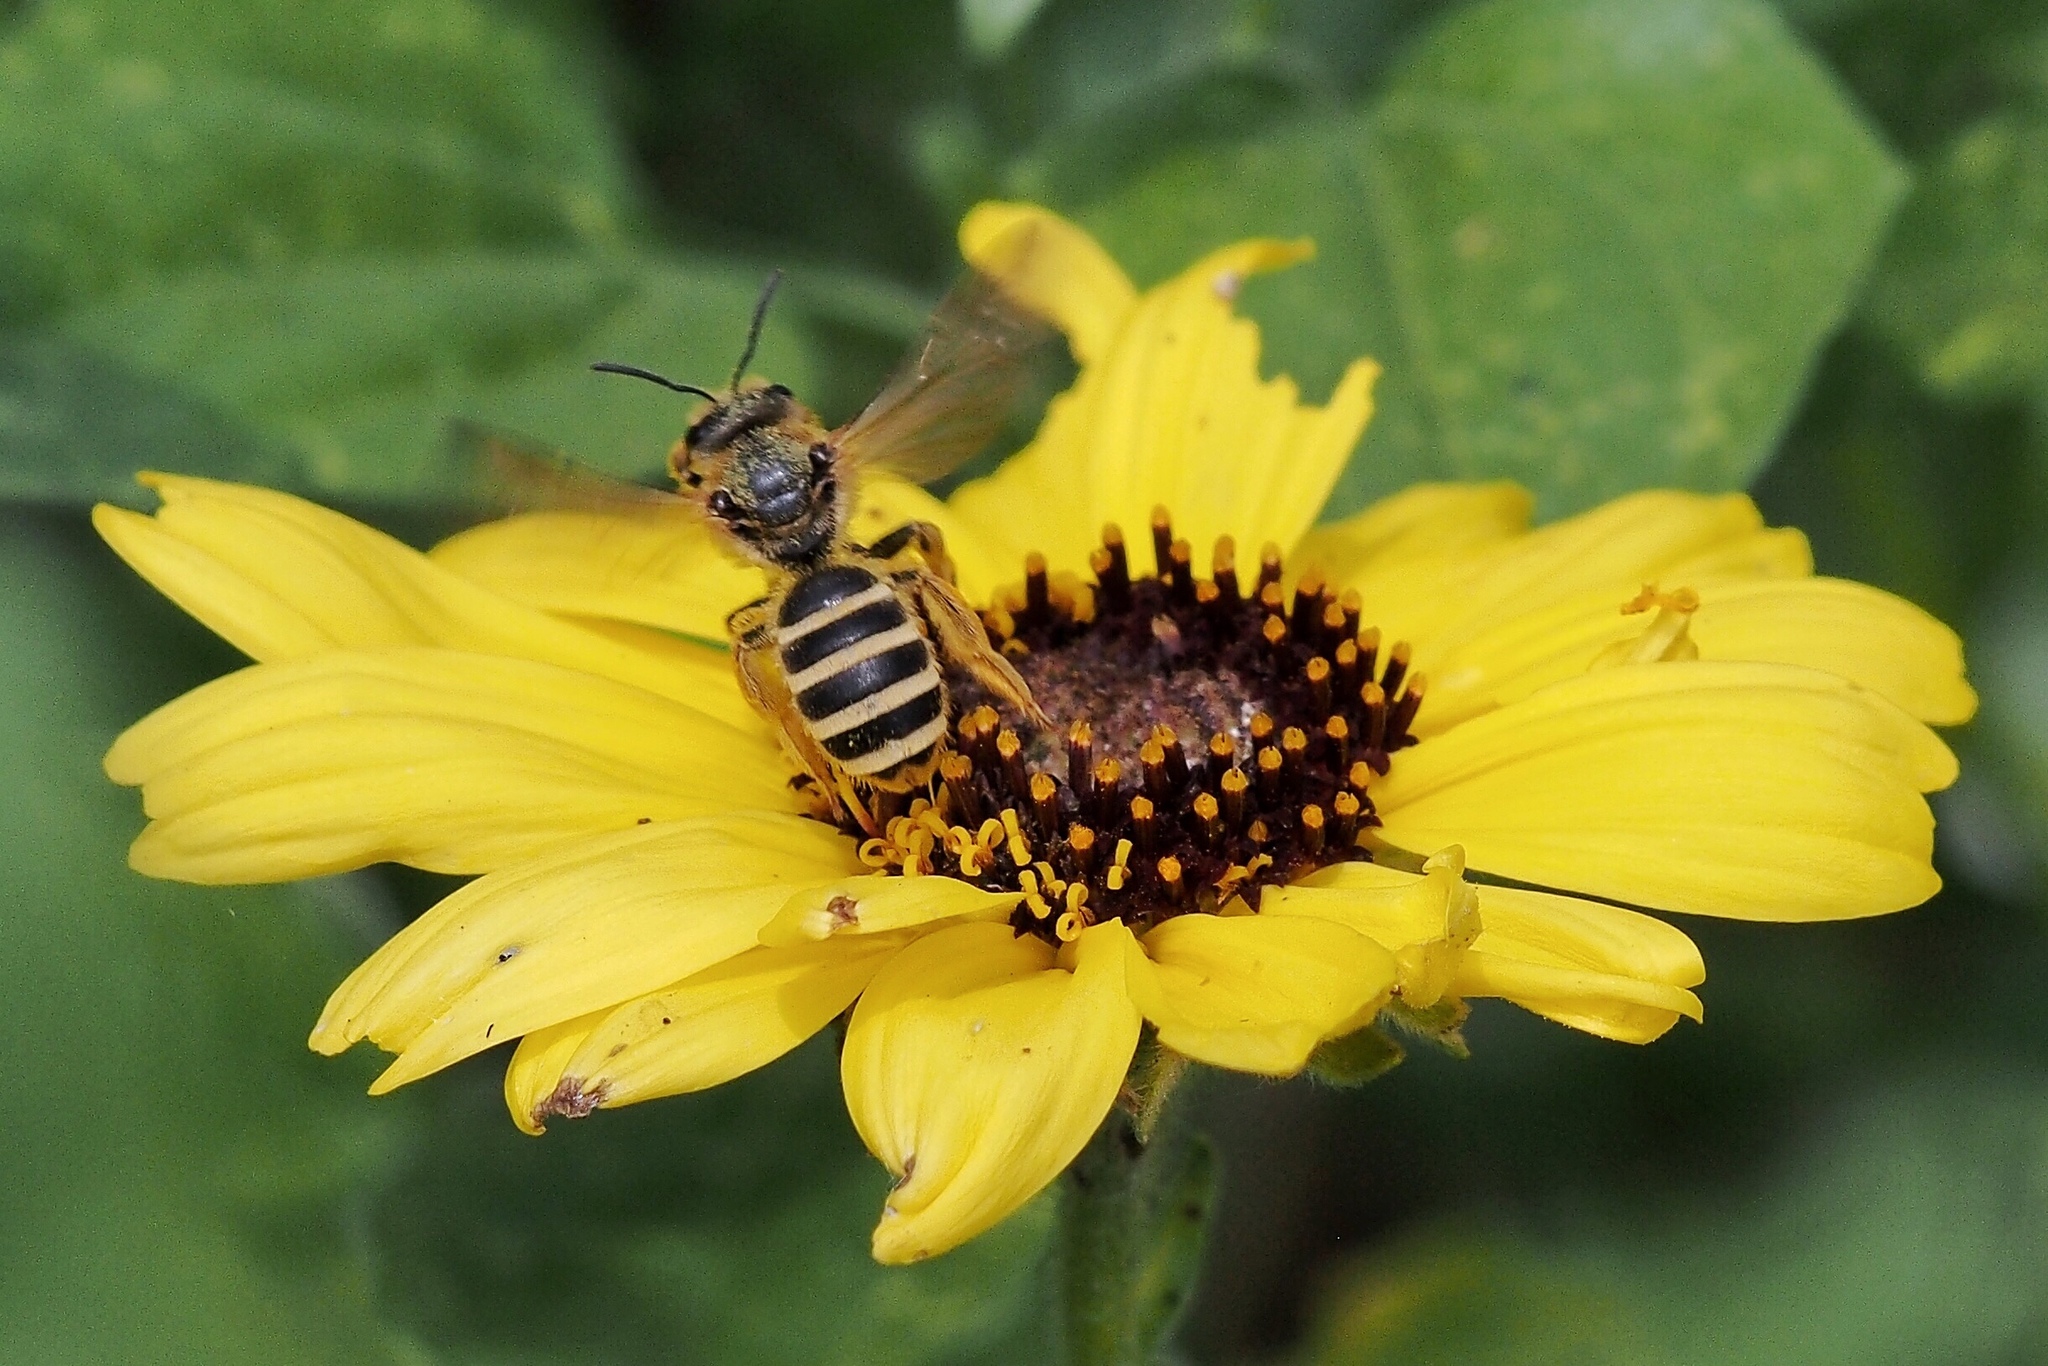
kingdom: Animalia
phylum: Arthropoda
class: Insecta
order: Hymenoptera
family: Halictidae
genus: Halictus
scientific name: Halictus farinosus
